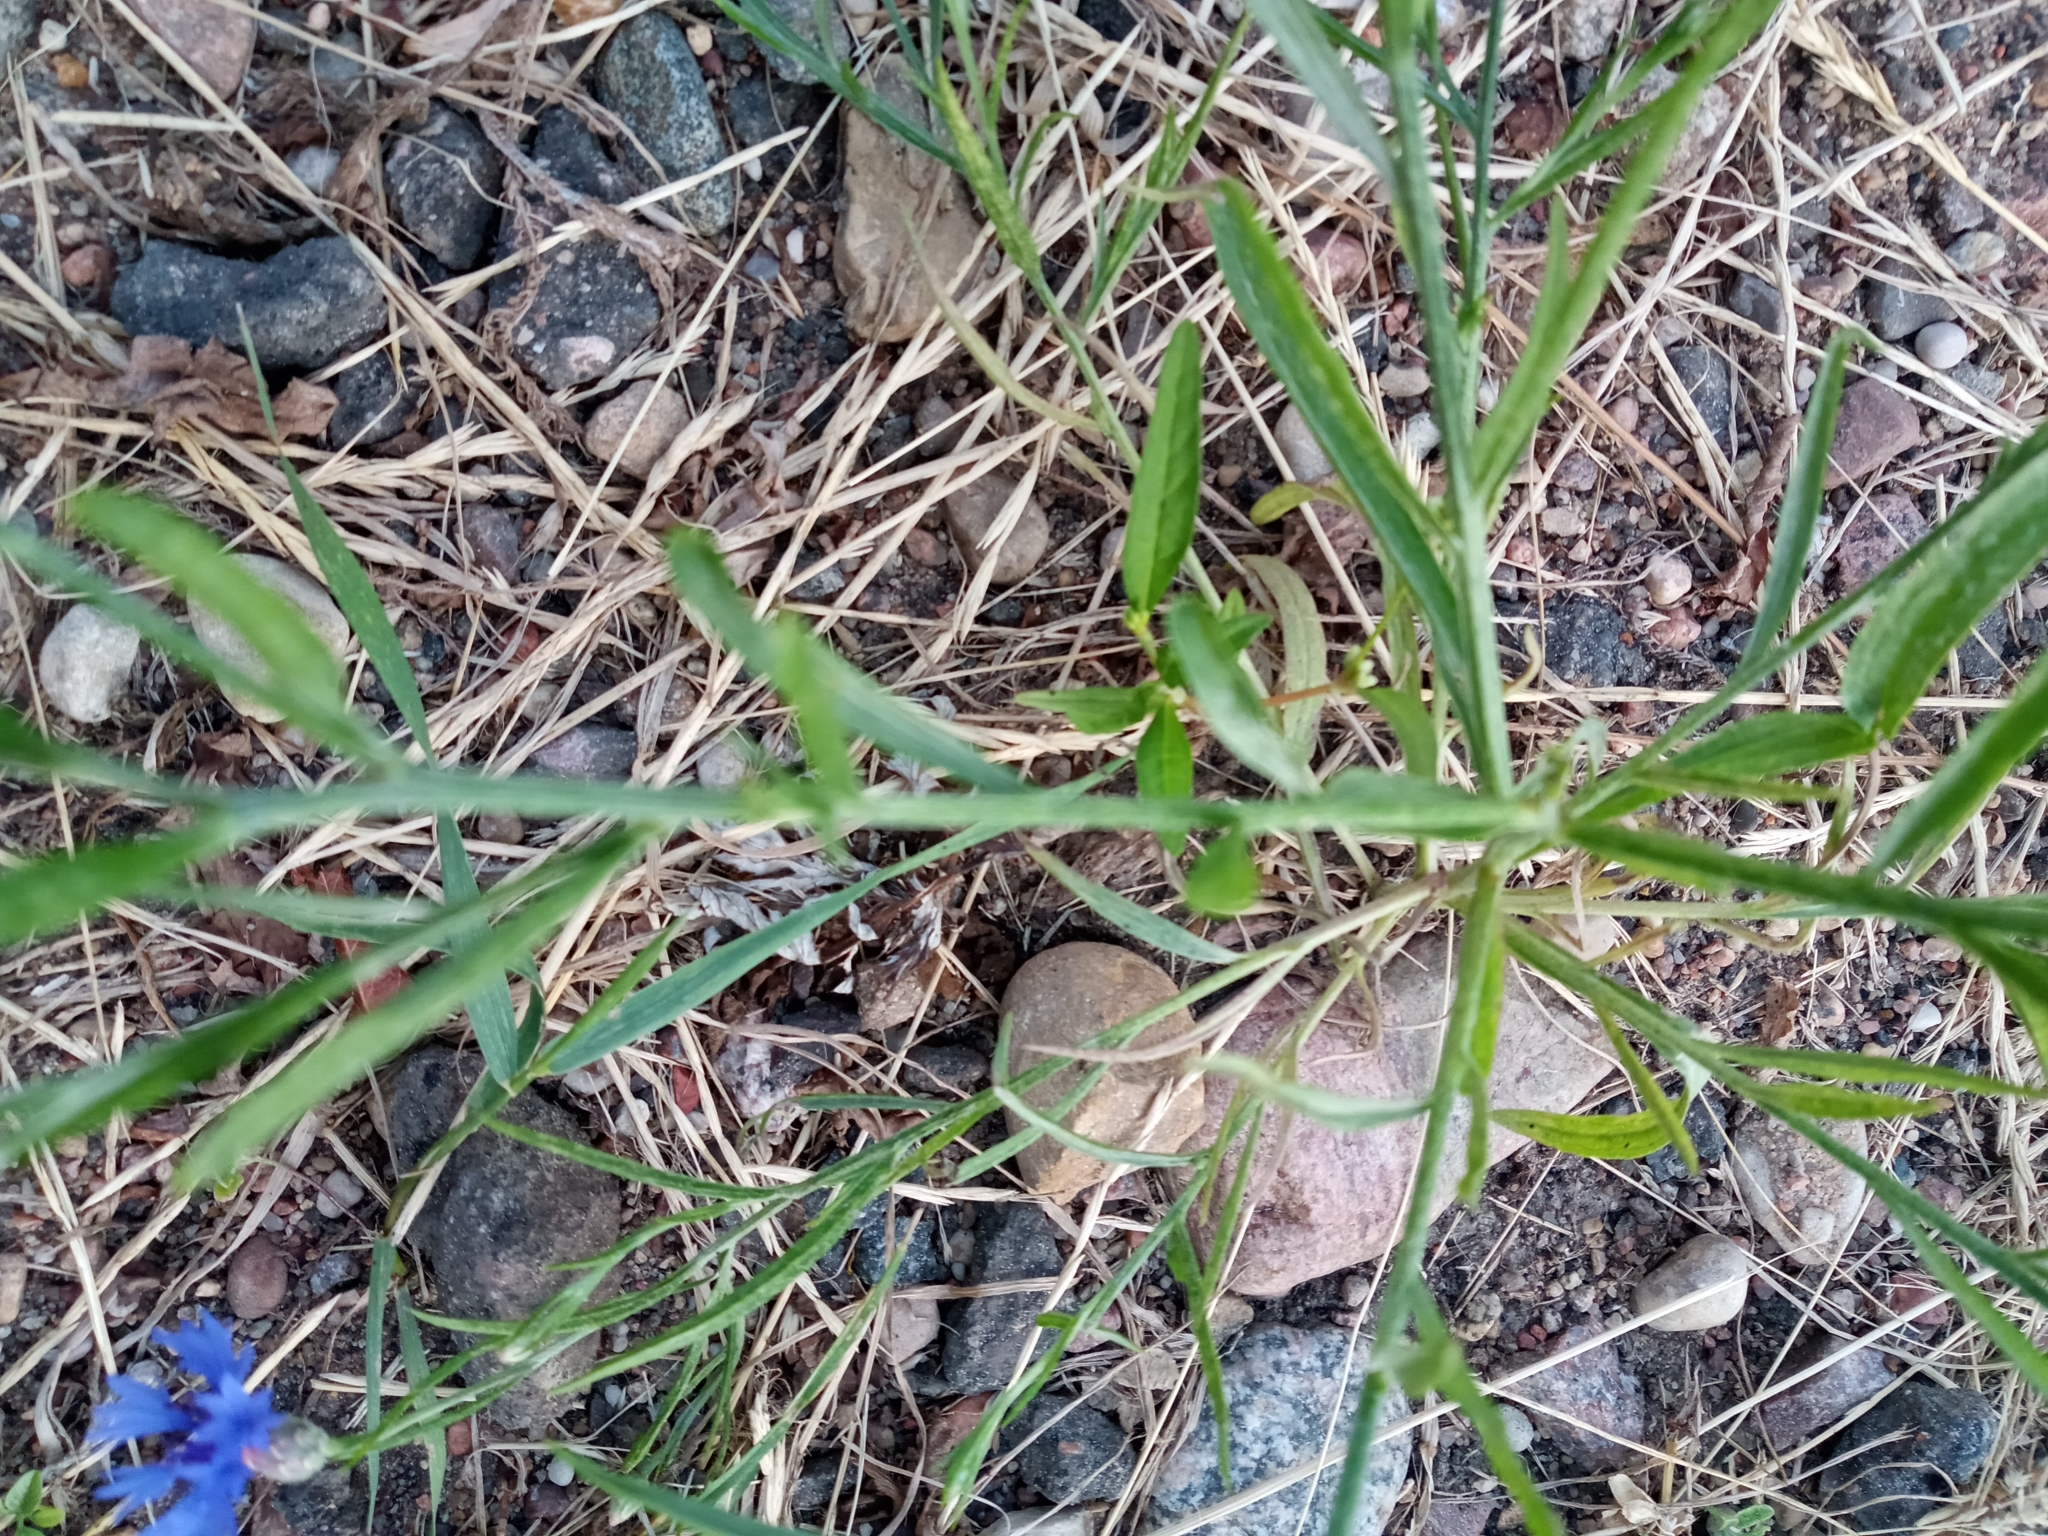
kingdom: Plantae
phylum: Tracheophyta
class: Magnoliopsida
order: Asterales
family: Asteraceae
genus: Centaurea
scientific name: Centaurea cyanus
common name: Cornflower
